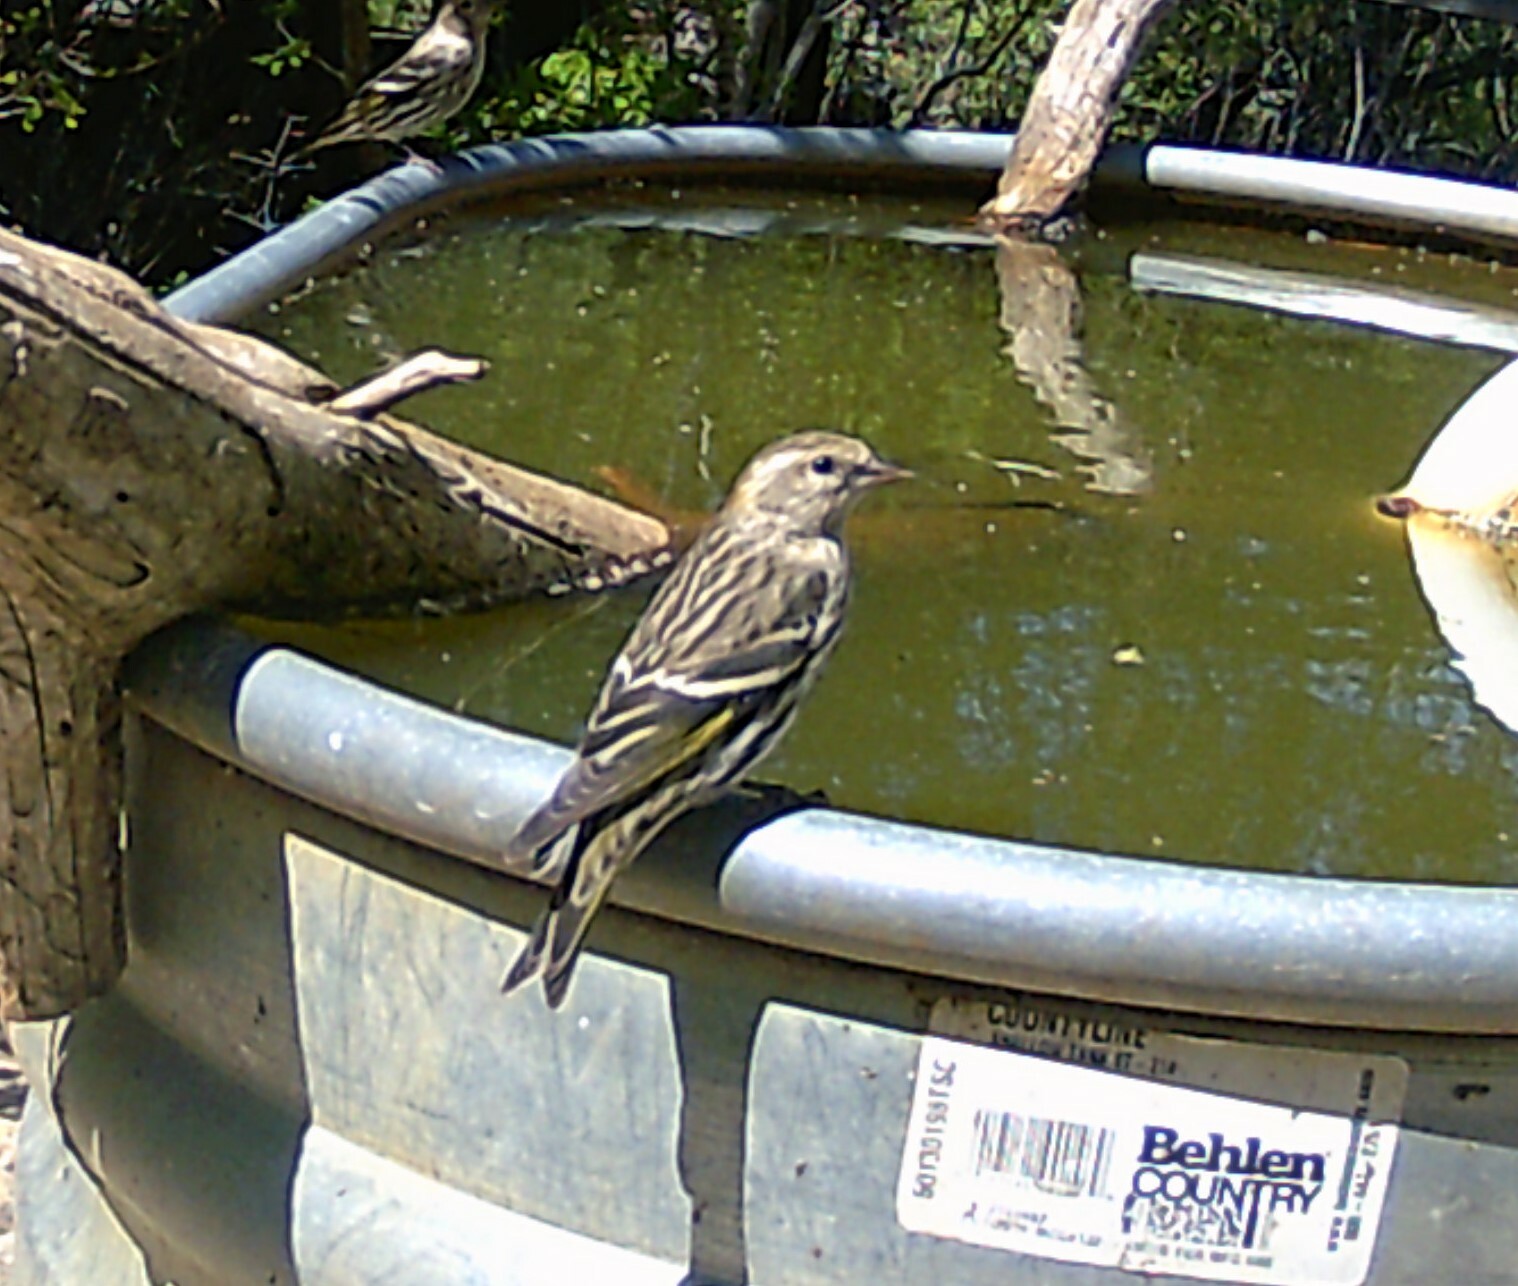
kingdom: Animalia
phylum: Chordata
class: Aves
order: Passeriformes
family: Fringillidae
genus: Spinus
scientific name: Spinus pinus
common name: Pine siskin
